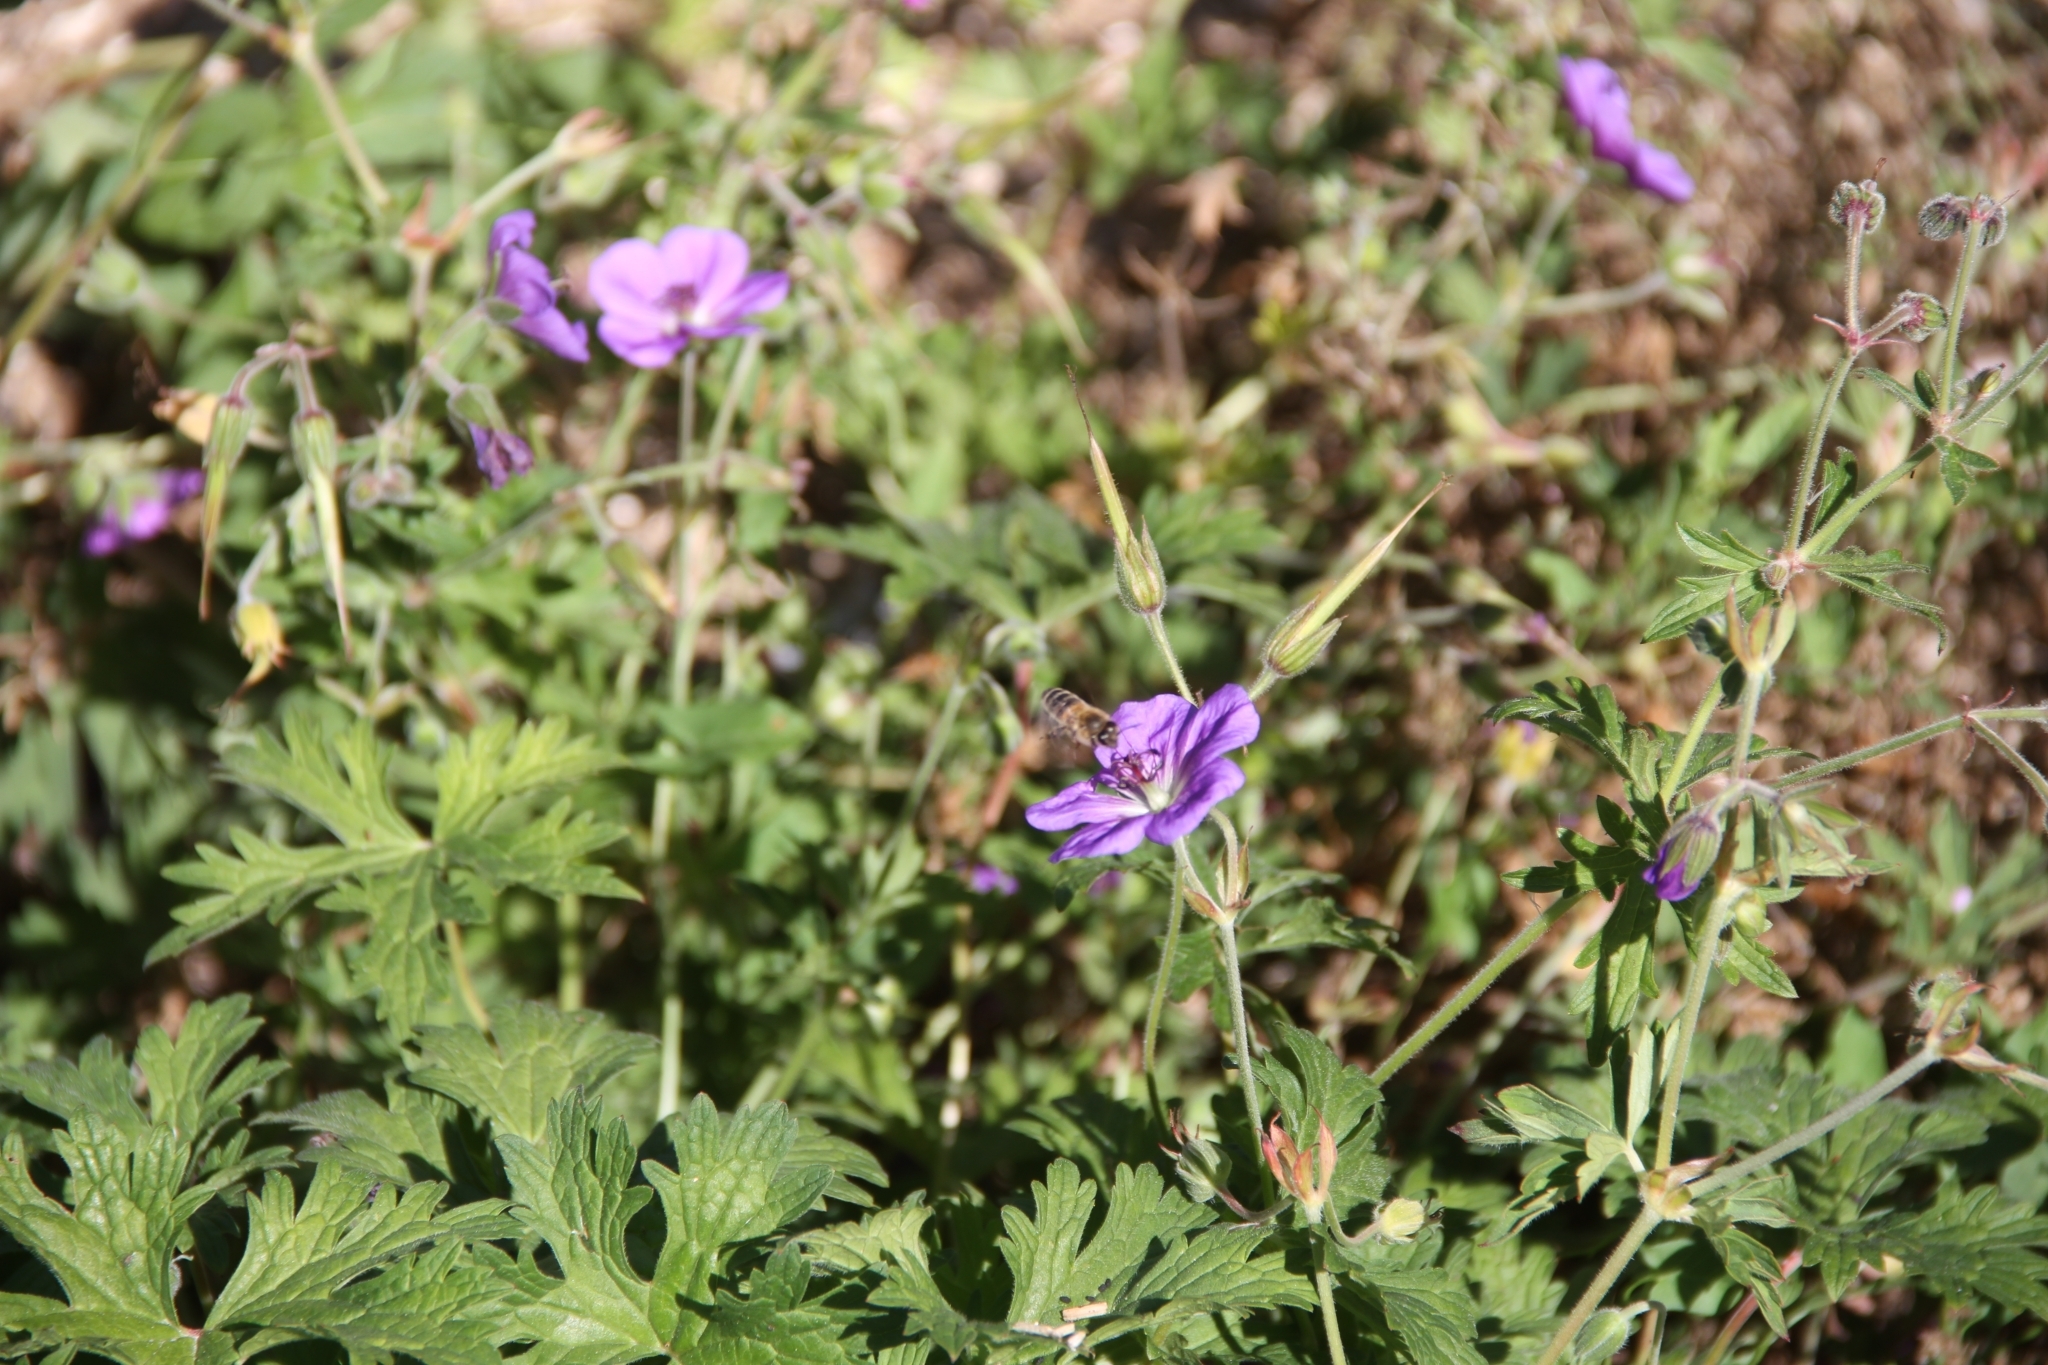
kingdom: Animalia
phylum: Arthropoda
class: Insecta
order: Hymenoptera
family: Apidae
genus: Apis
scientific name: Apis mellifera
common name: Honey bee
